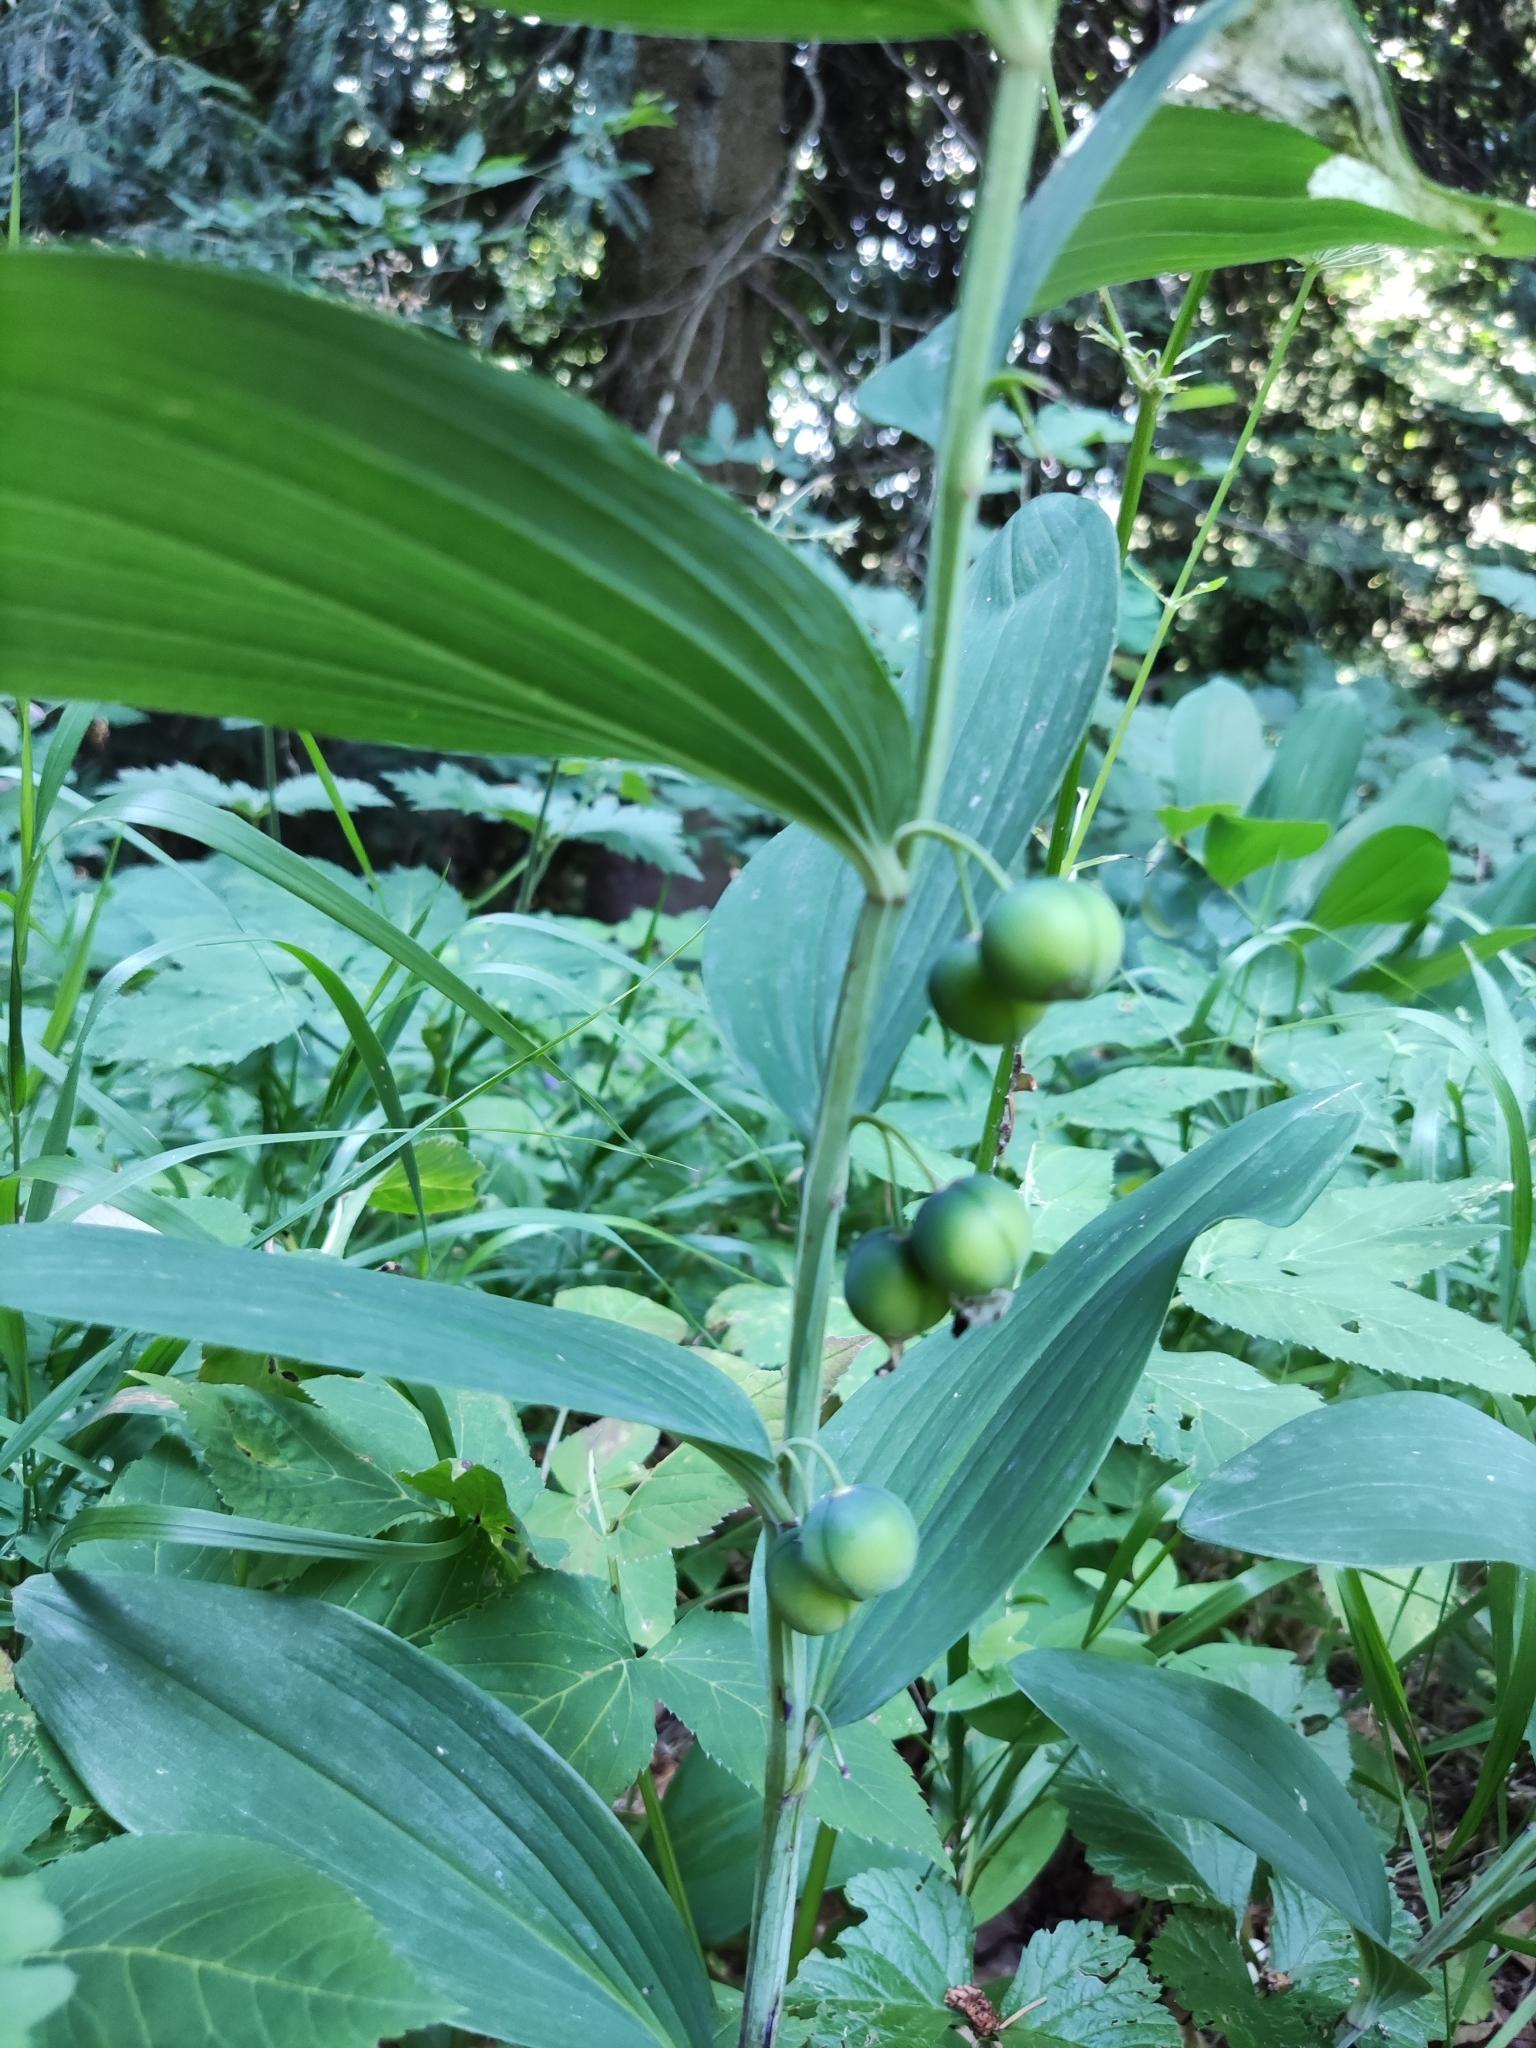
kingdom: Plantae
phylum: Tracheophyta
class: Liliopsida
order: Asparagales
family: Asparagaceae
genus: Polygonatum
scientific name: Polygonatum odoratum
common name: Angular solomon's-seal
